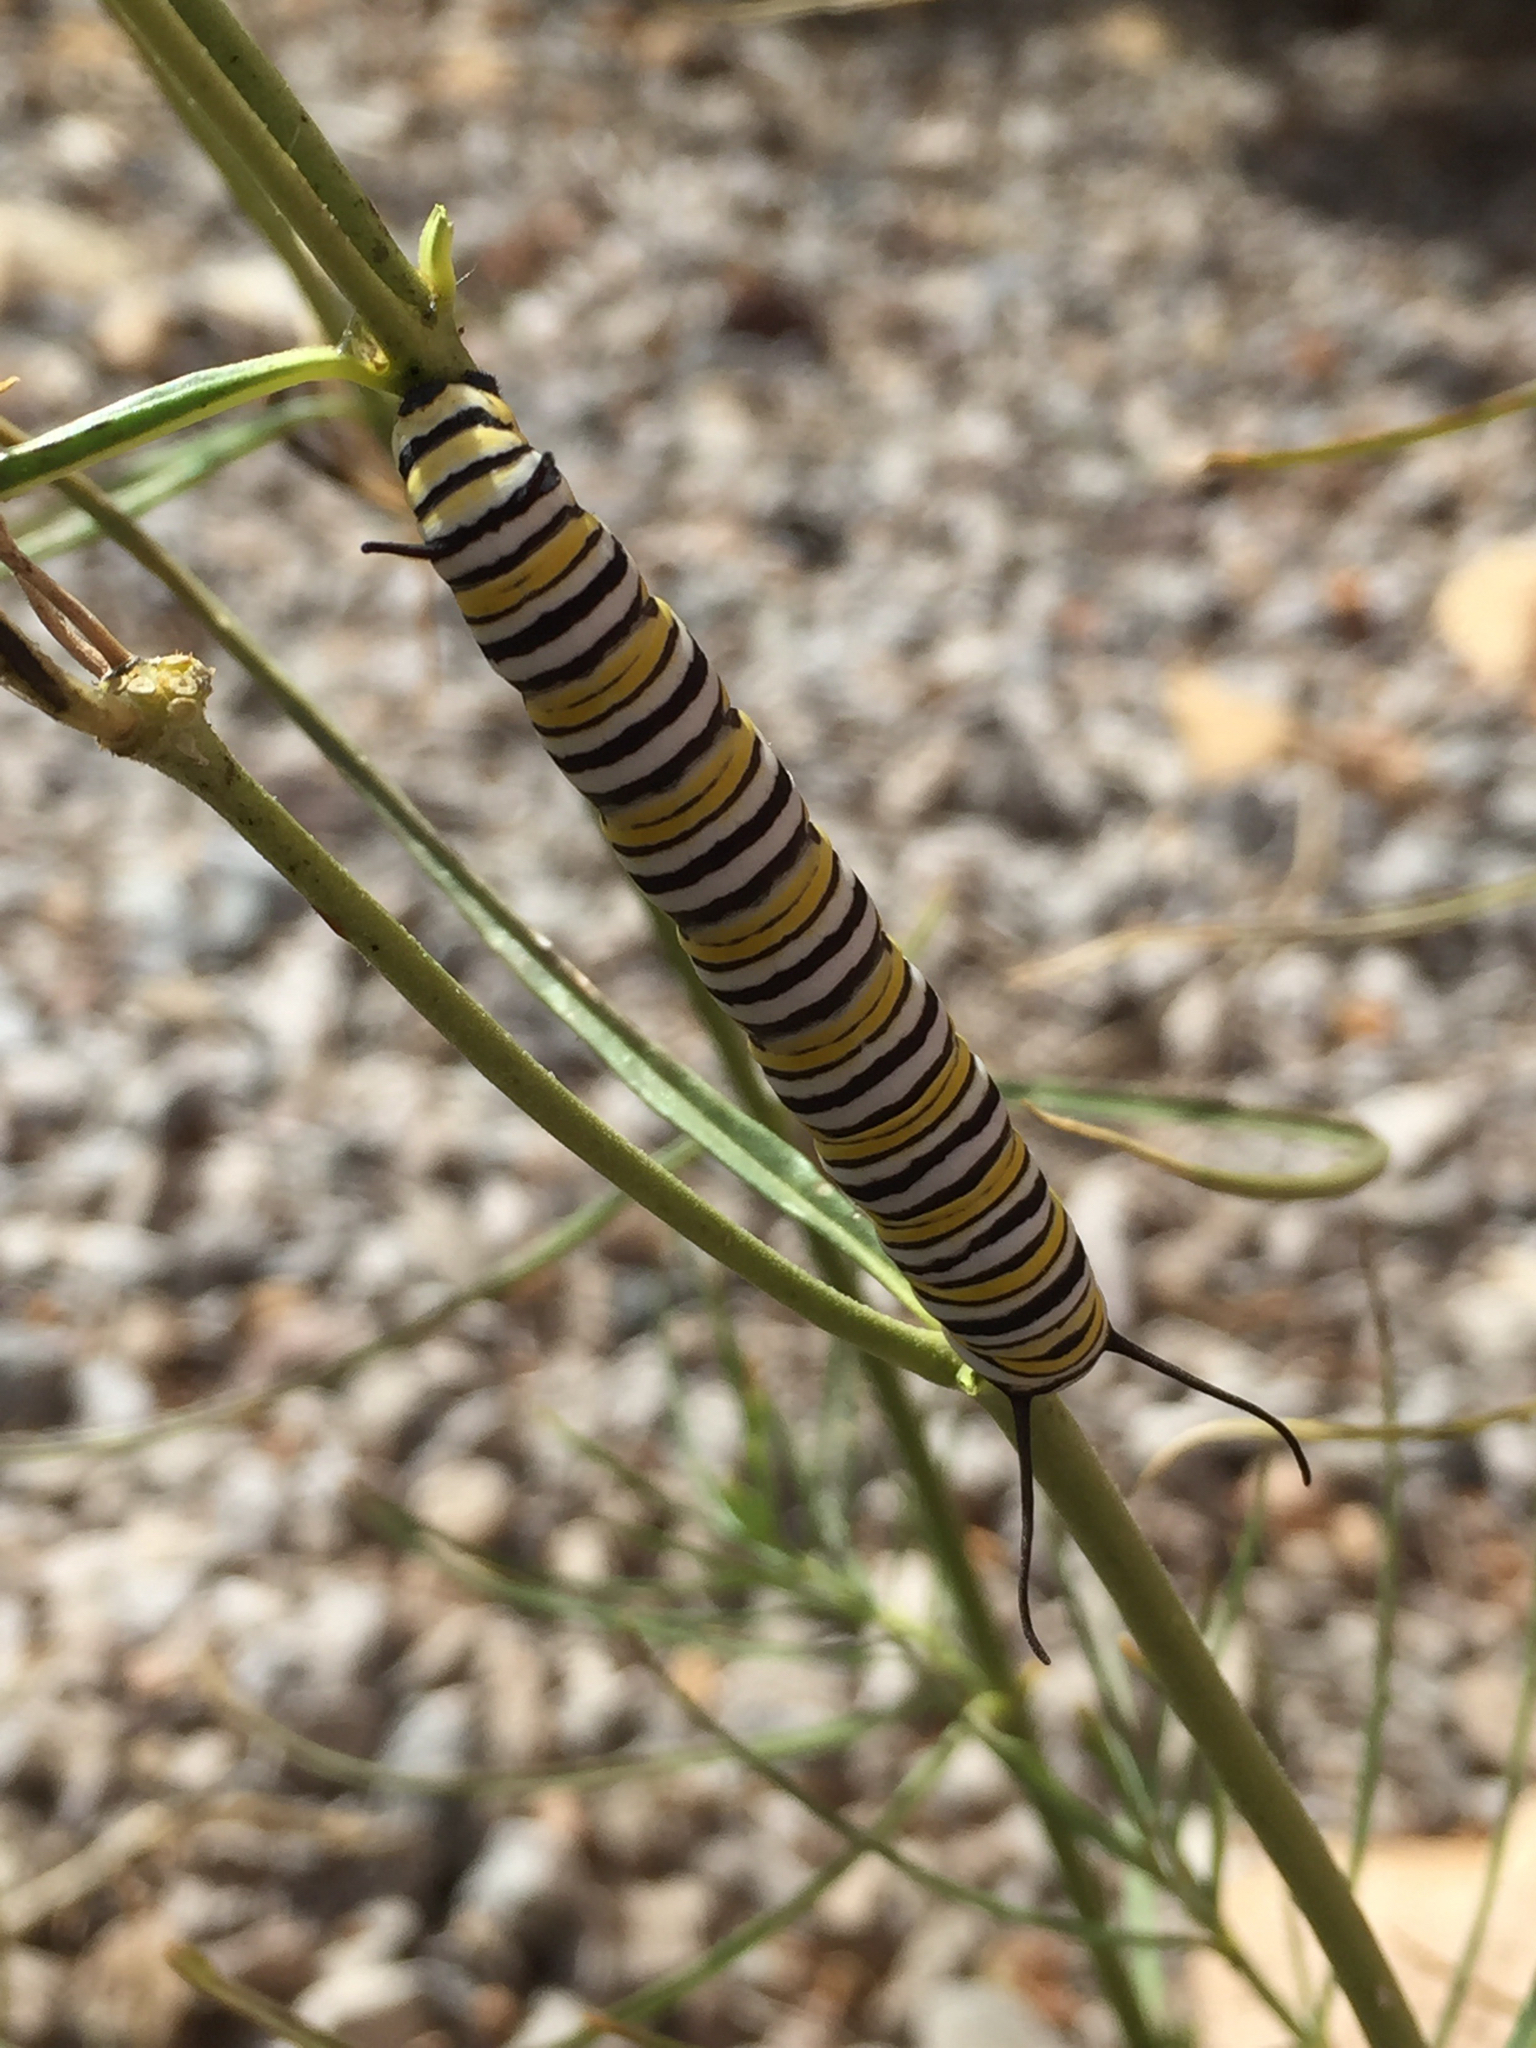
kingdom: Animalia
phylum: Arthropoda
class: Insecta
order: Lepidoptera
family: Nymphalidae
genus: Danaus
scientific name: Danaus plexippus
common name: Monarch
